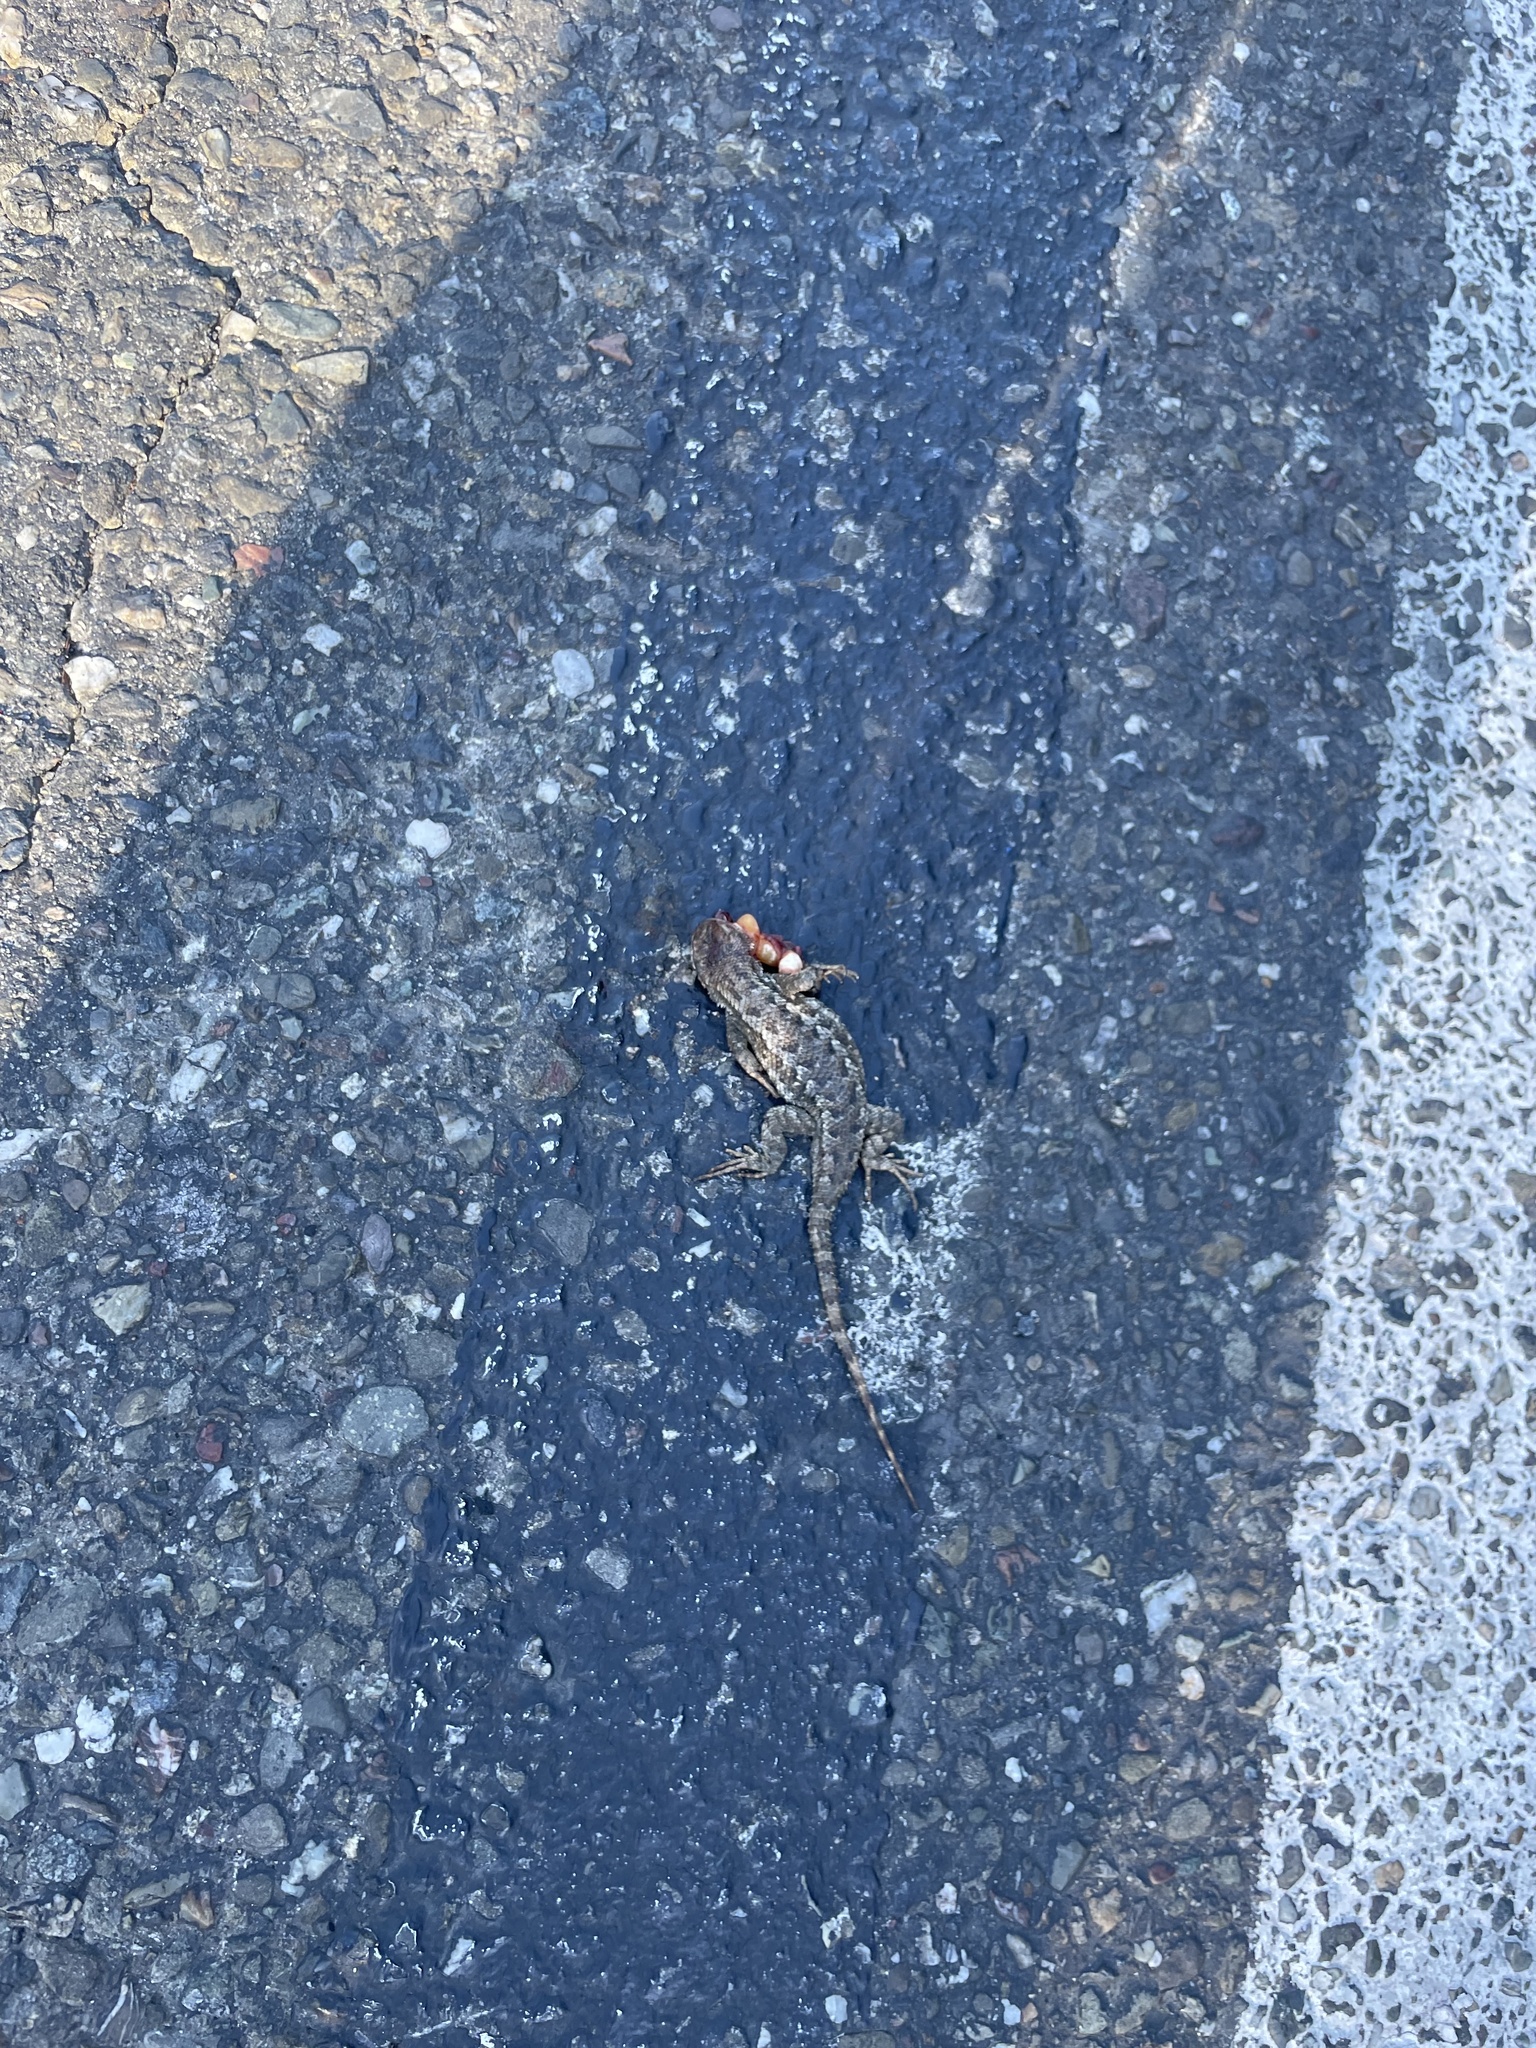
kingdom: Animalia
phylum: Chordata
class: Squamata
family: Phrynosomatidae
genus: Sceloporus
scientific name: Sceloporus occidentalis
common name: Western fence lizard
